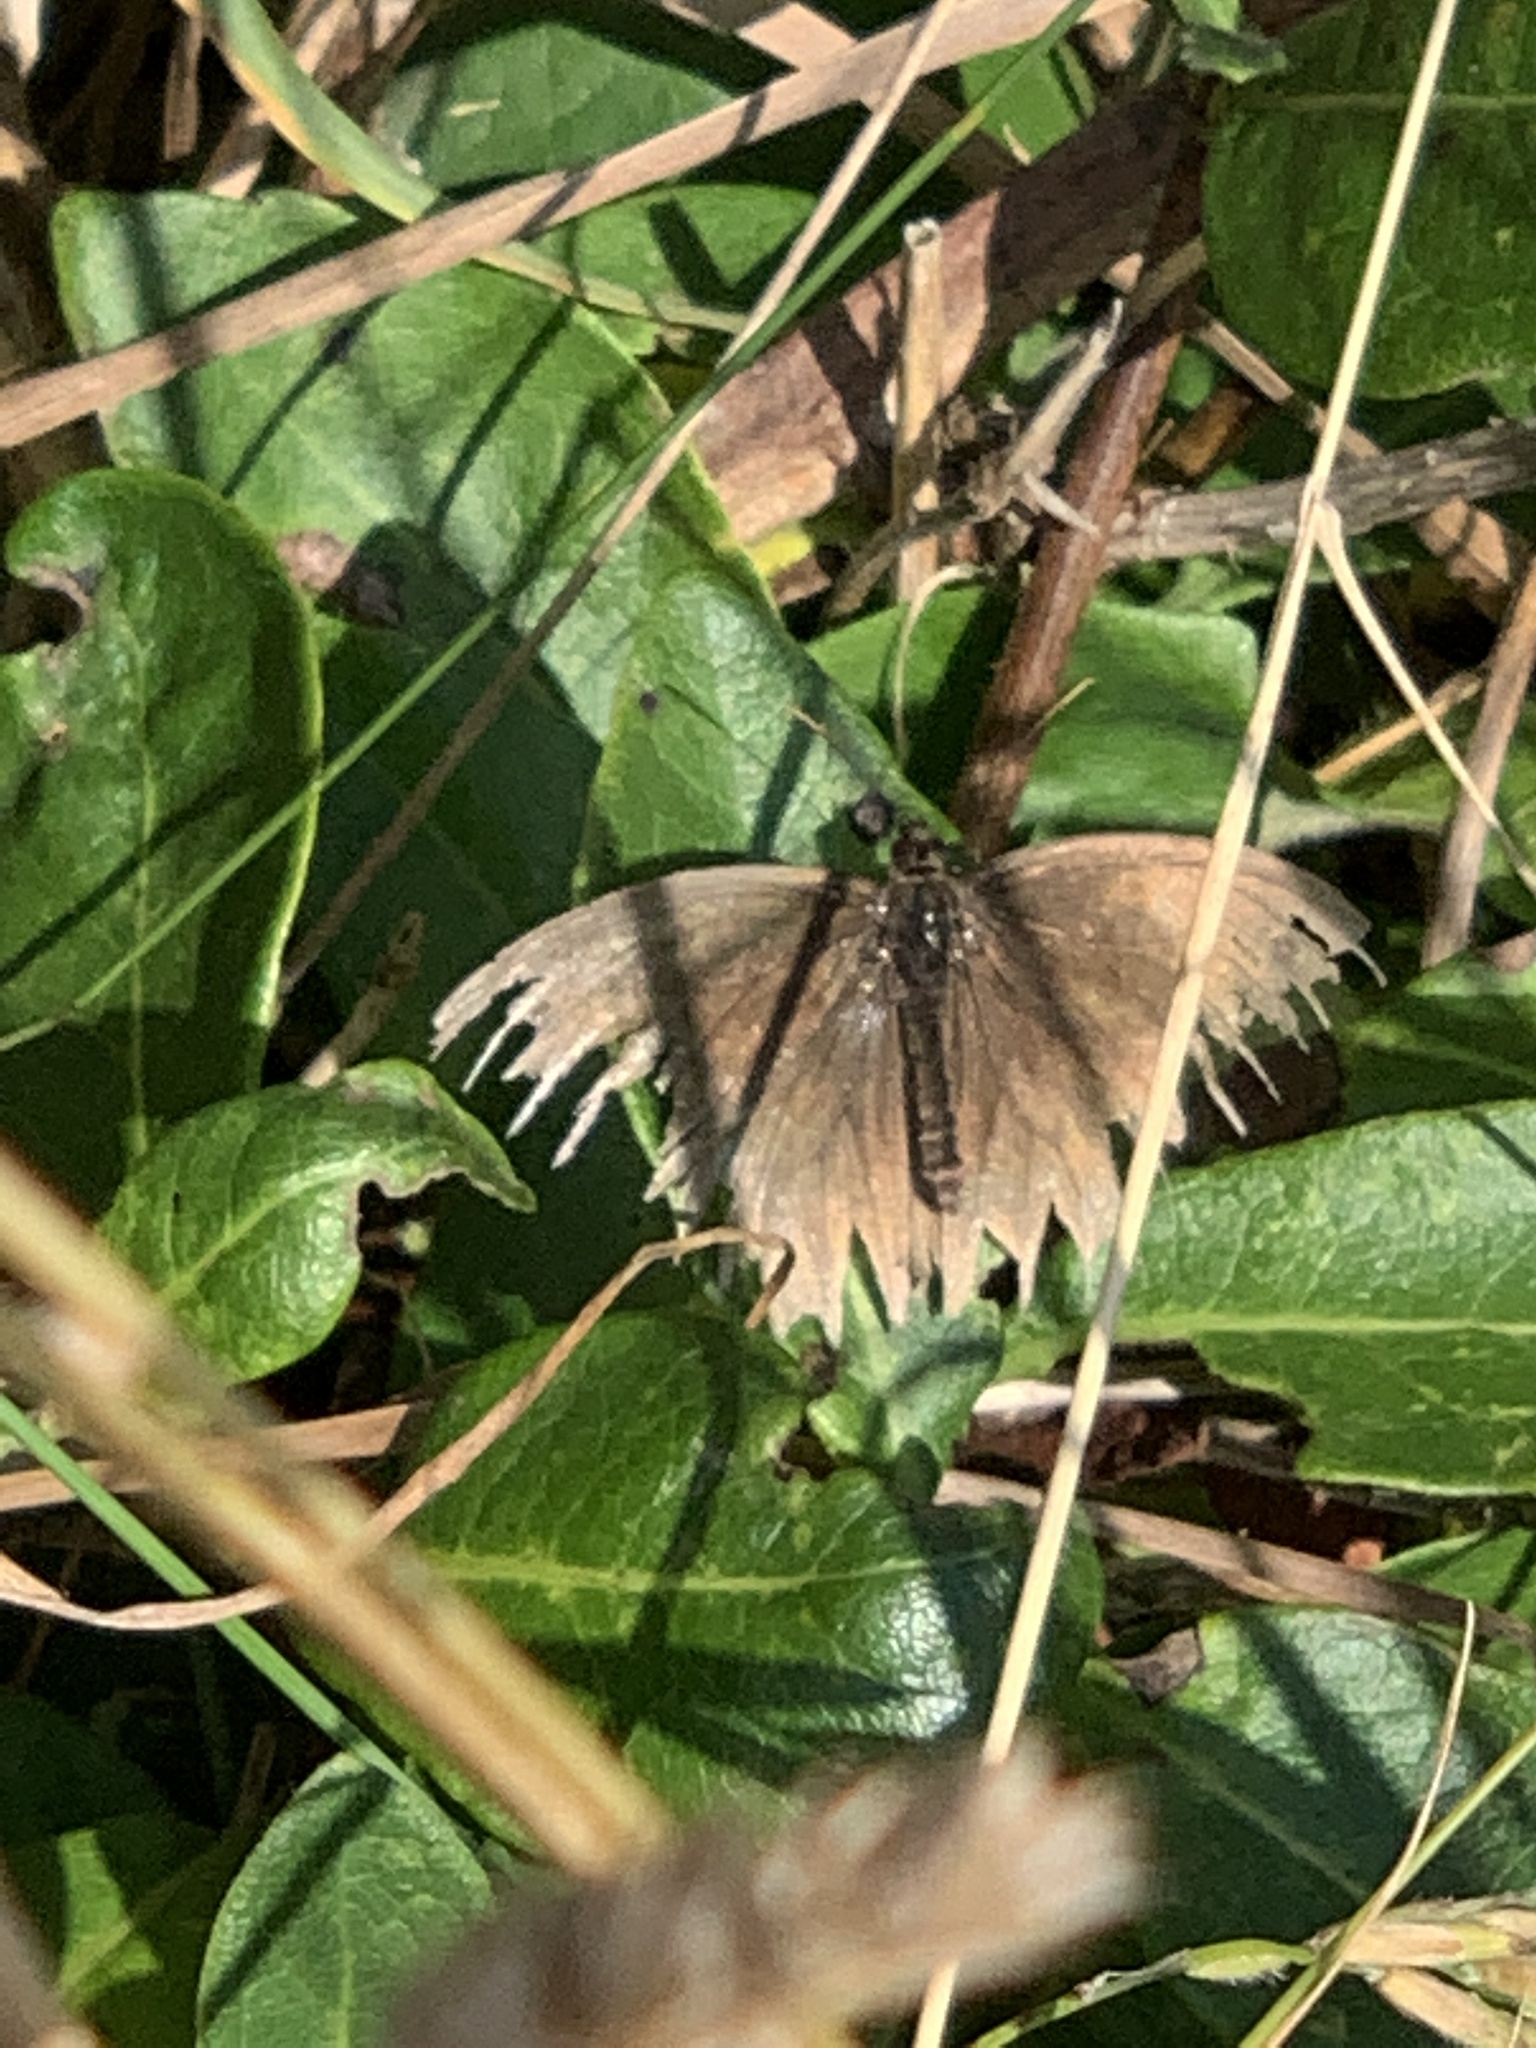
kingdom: Animalia
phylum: Arthropoda
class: Insecta
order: Lepidoptera
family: Nymphalidae
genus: Maniola
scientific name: Maniola jurtina
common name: Meadow brown
